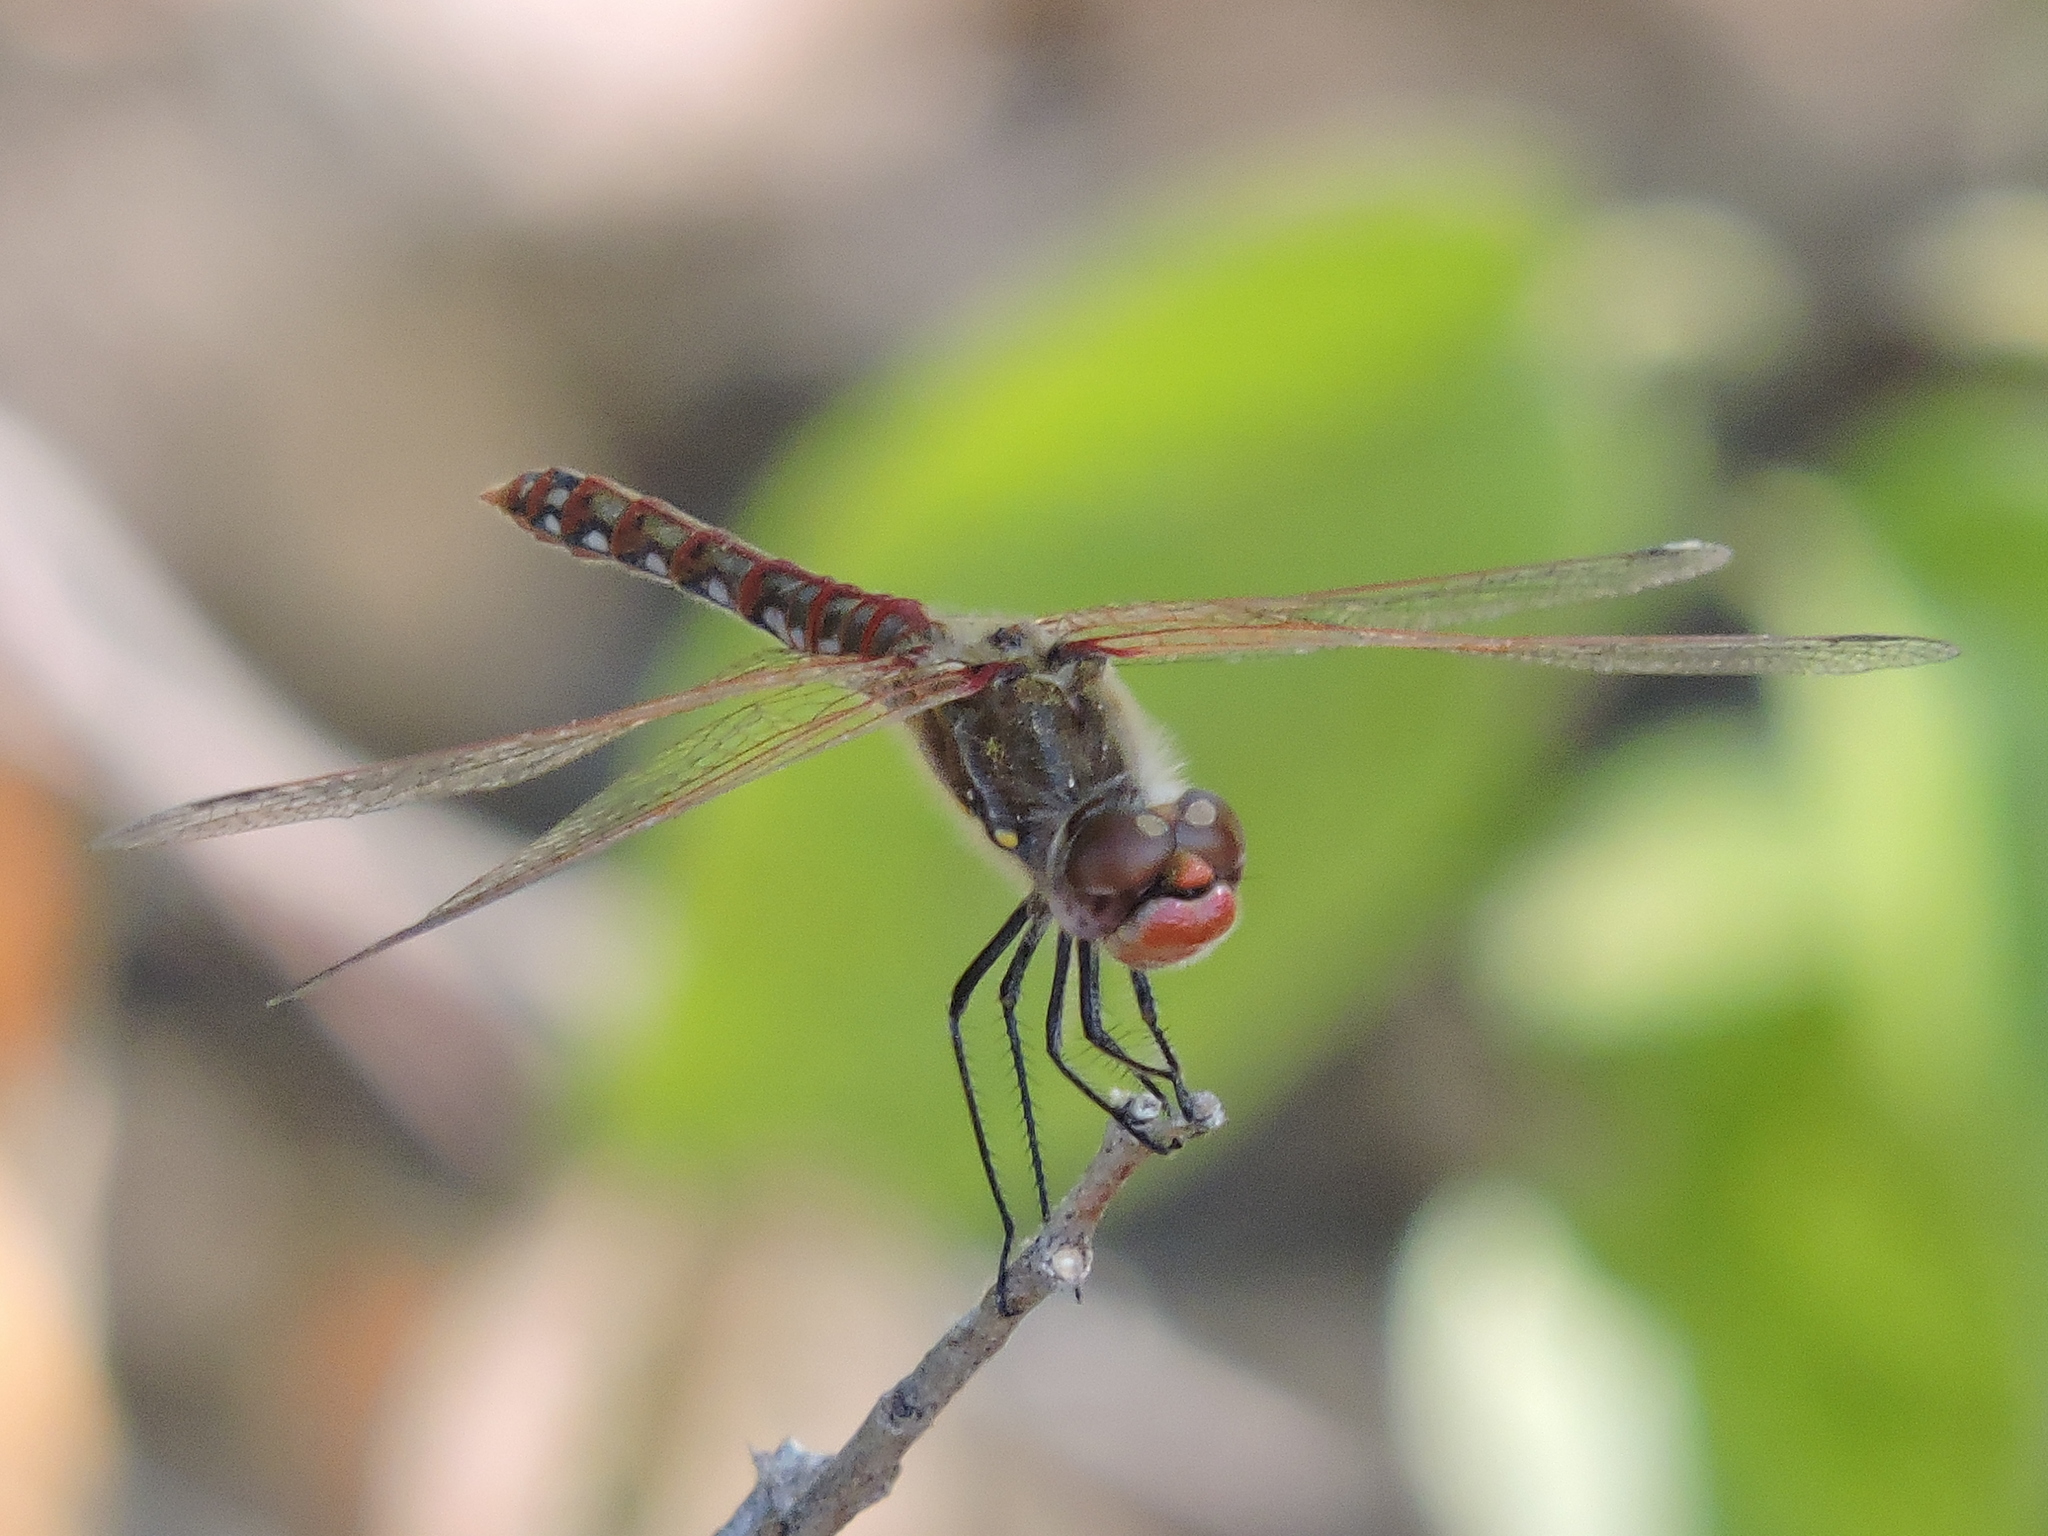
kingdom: Animalia
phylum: Arthropoda
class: Insecta
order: Odonata
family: Libellulidae
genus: Sympetrum
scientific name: Sympetrum corruptum
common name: Variegated meadowhawk
